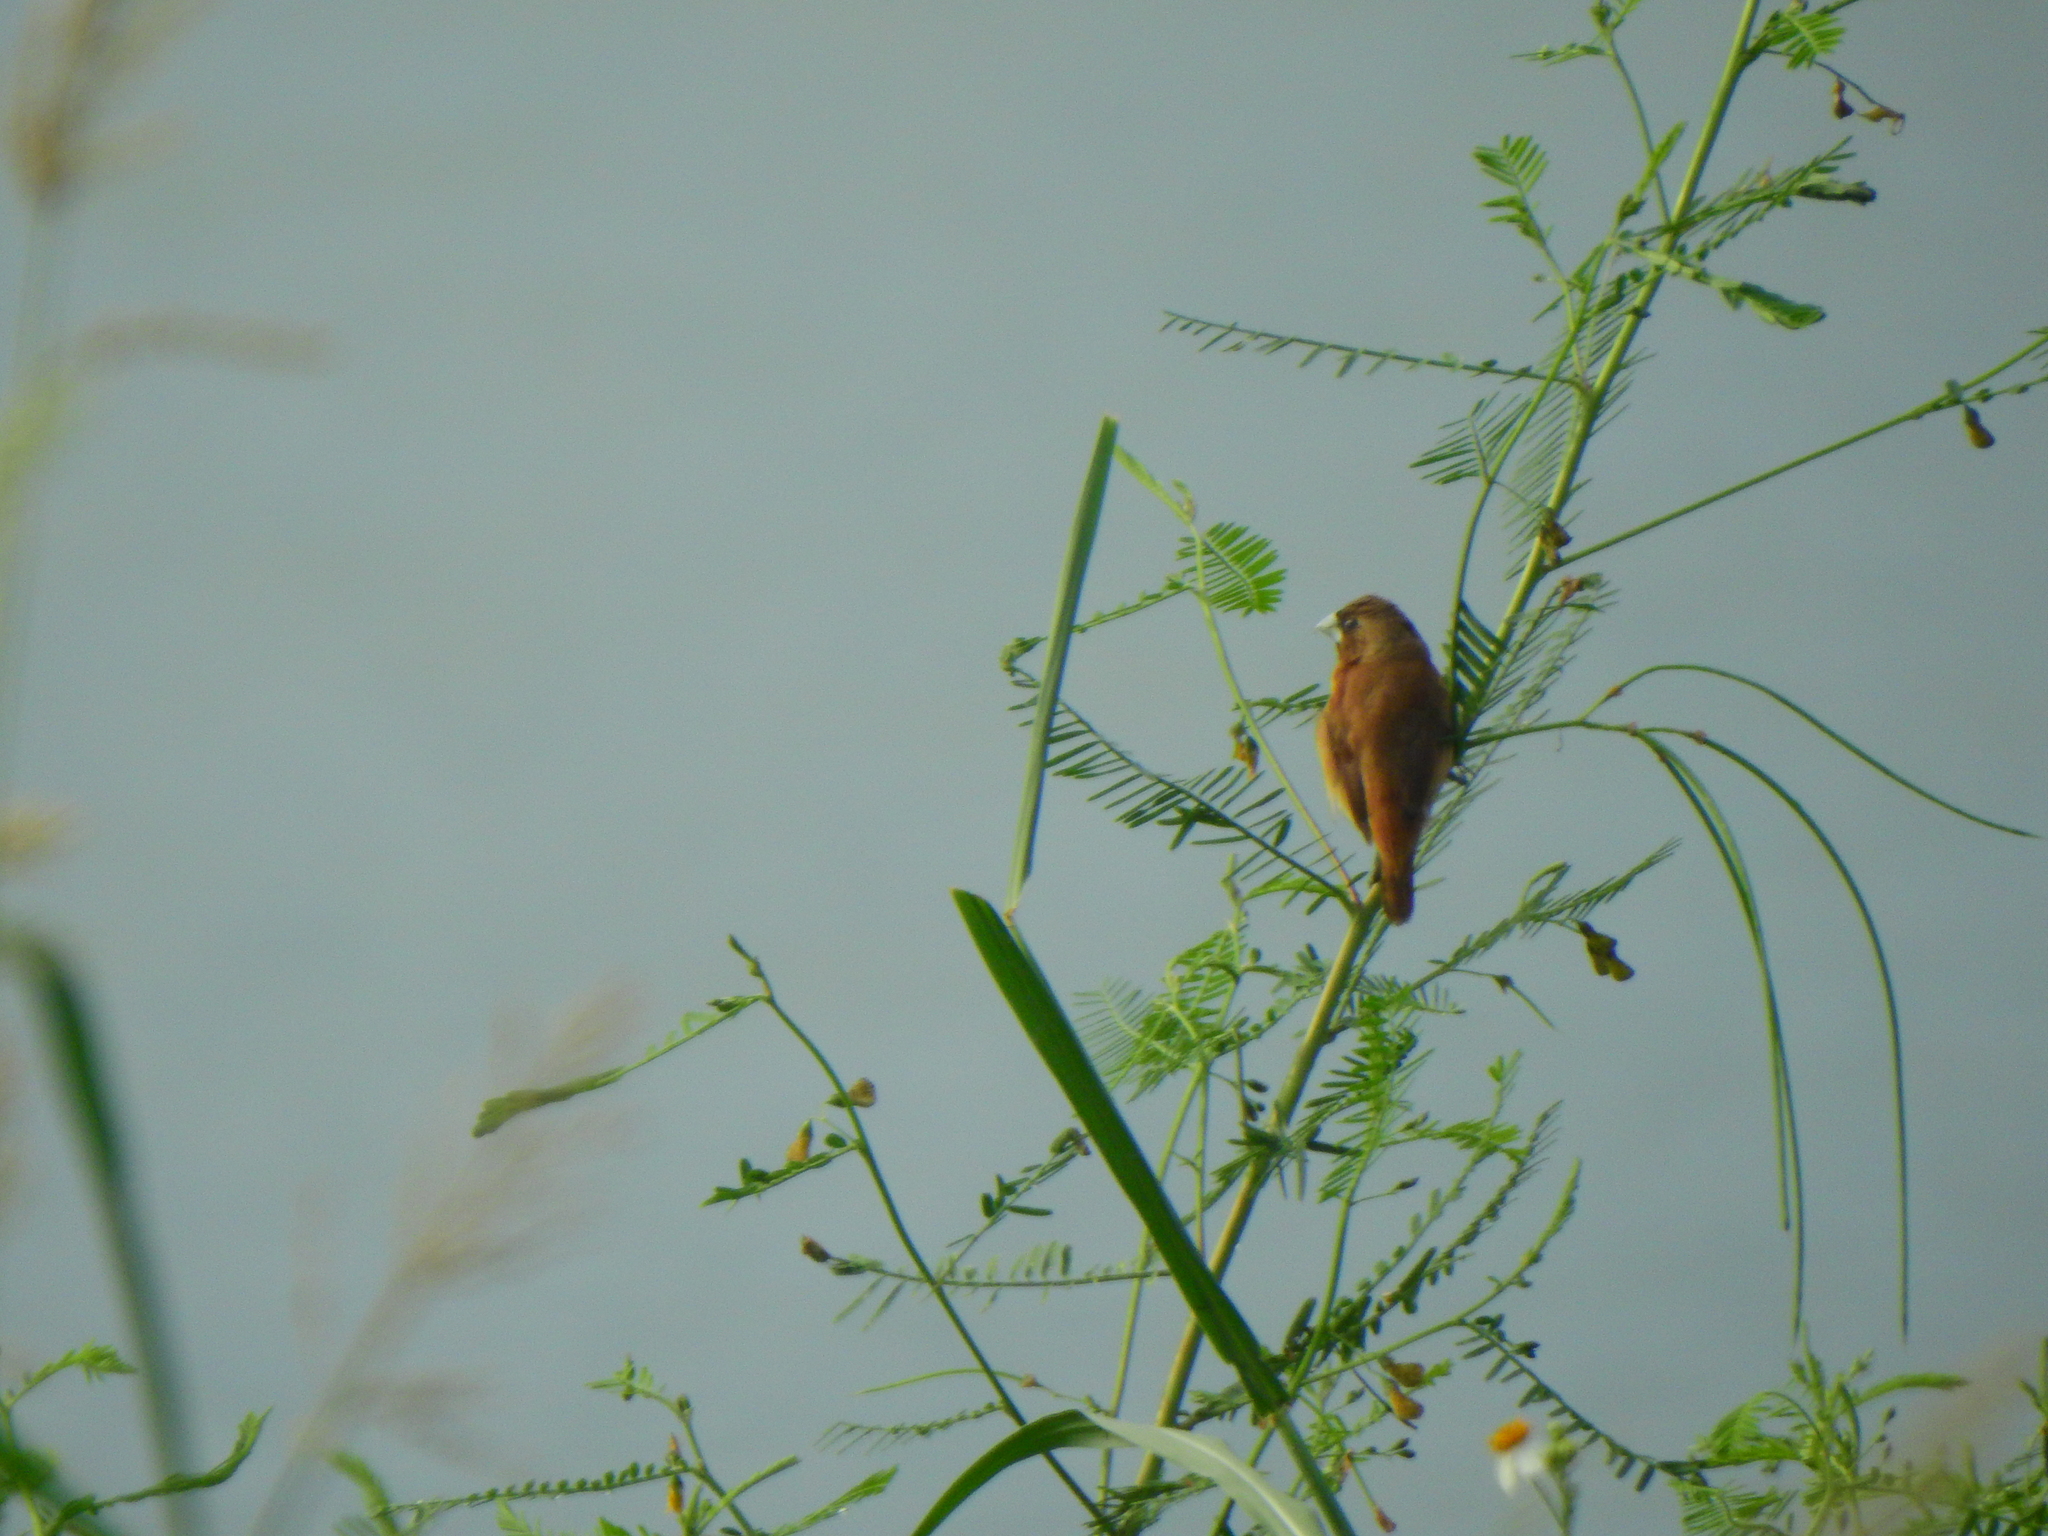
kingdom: Animalia
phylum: Chordata
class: Aves
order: Passeriformes
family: Estrildidae
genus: Lonchura
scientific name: Lonchura atricapilla
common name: Chestnut munia
